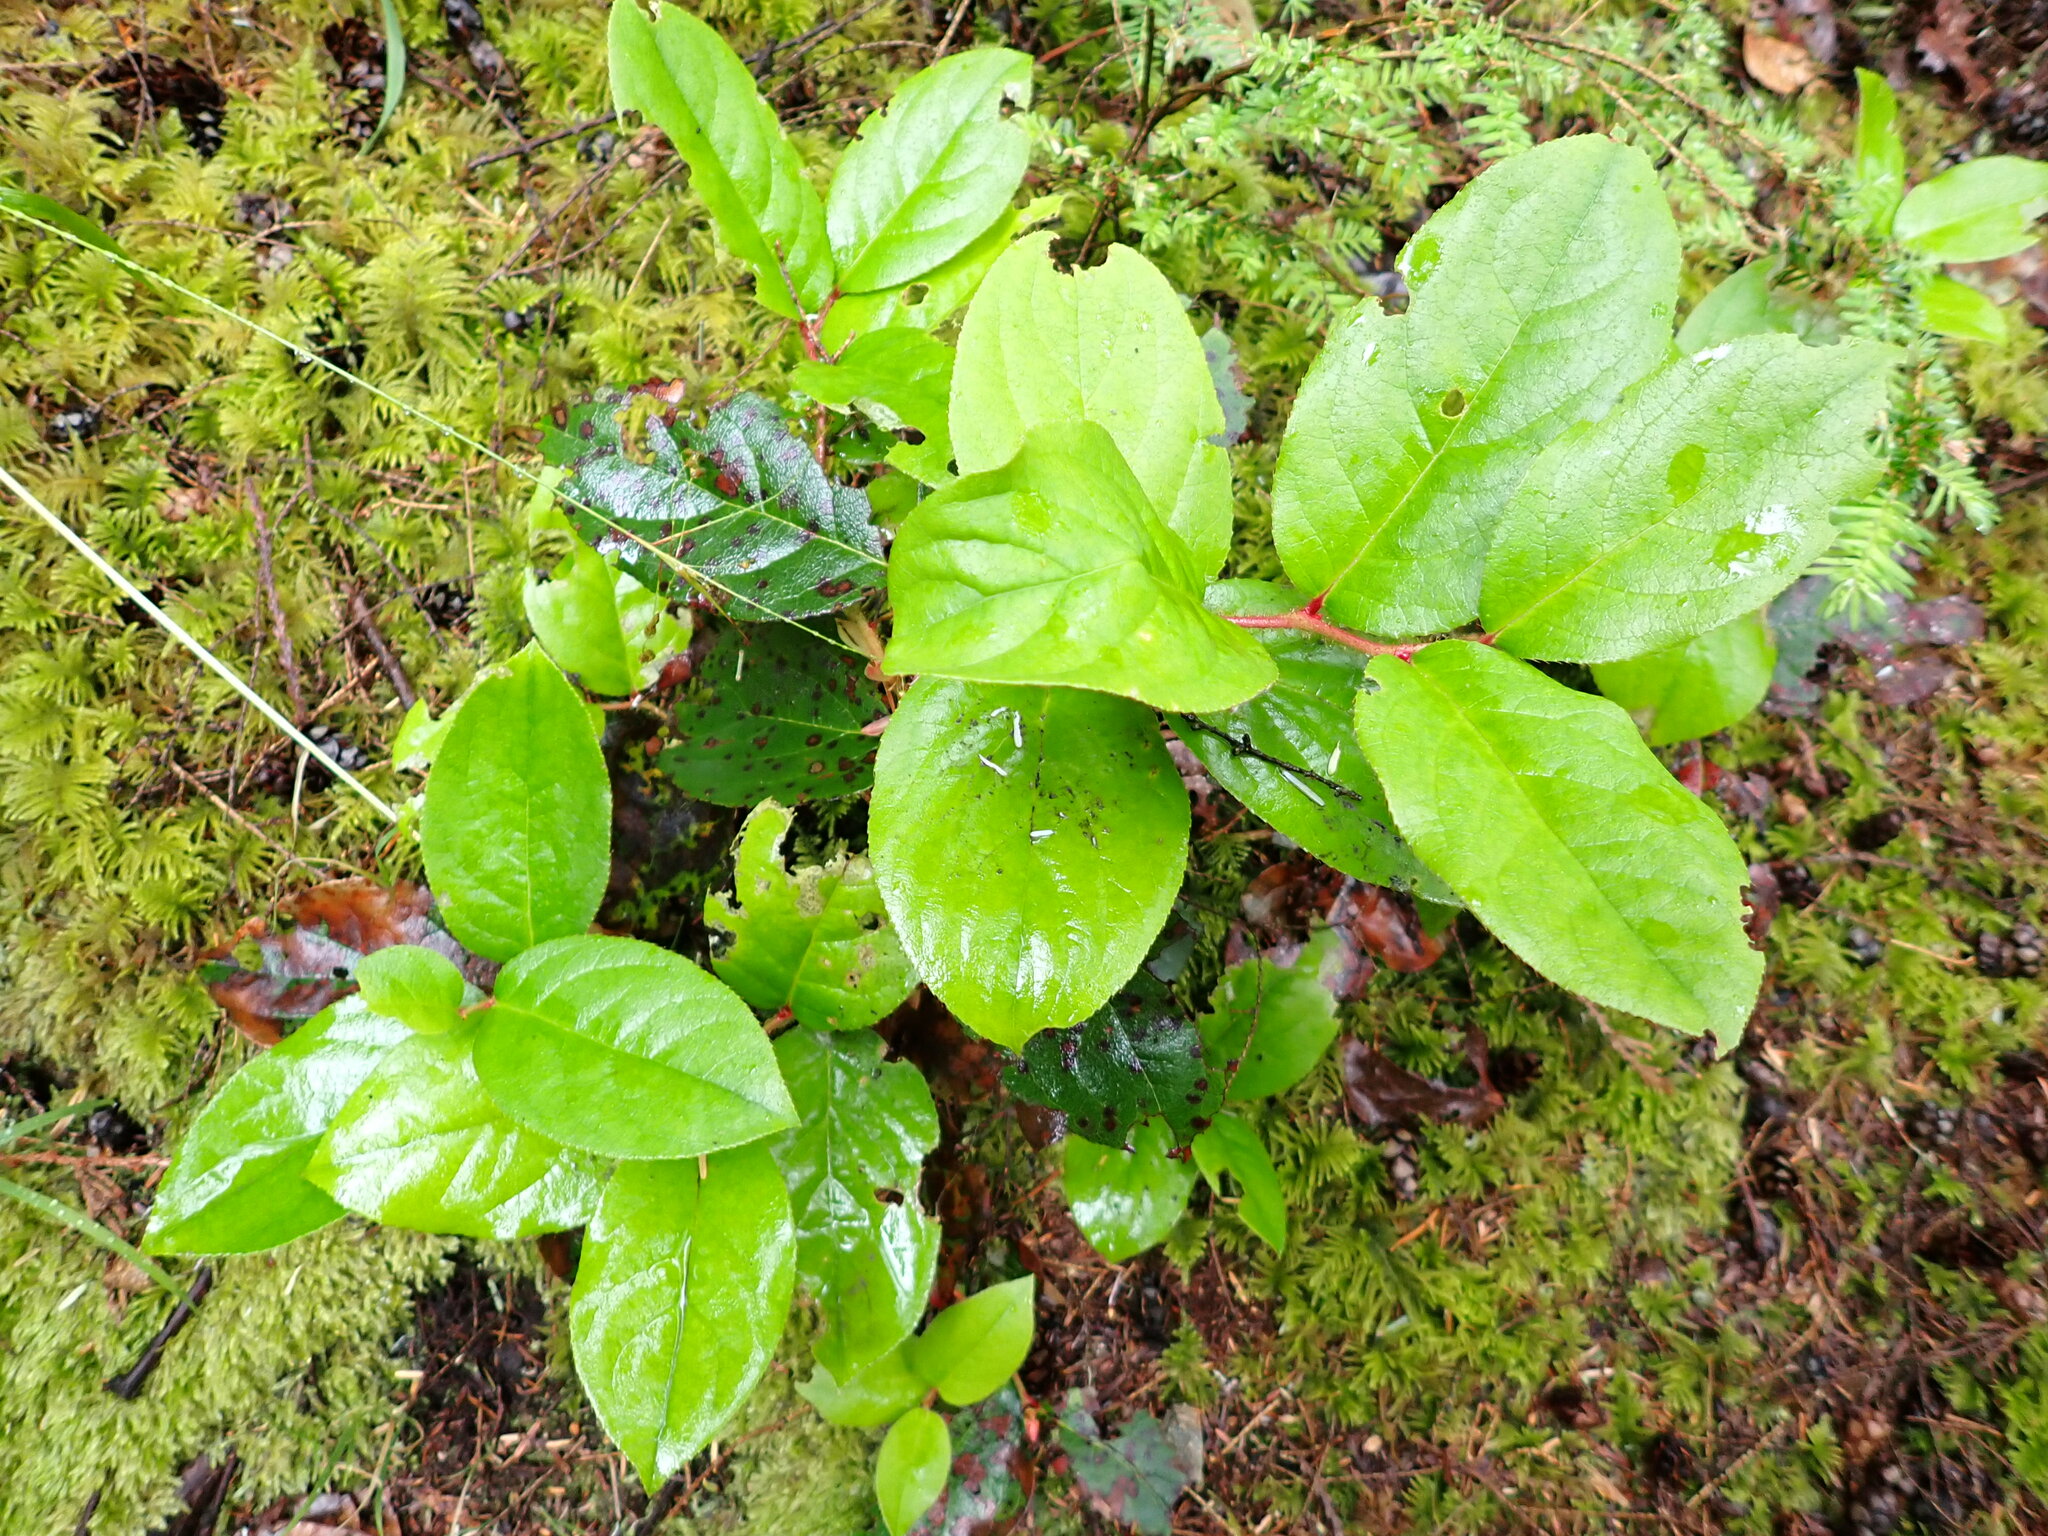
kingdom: Plantae
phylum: Tracheophyta
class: Magnoliopsida
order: Ericales
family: Ericaceae
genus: Gaultheria
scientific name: Gaultheria shallon
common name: Shallon
